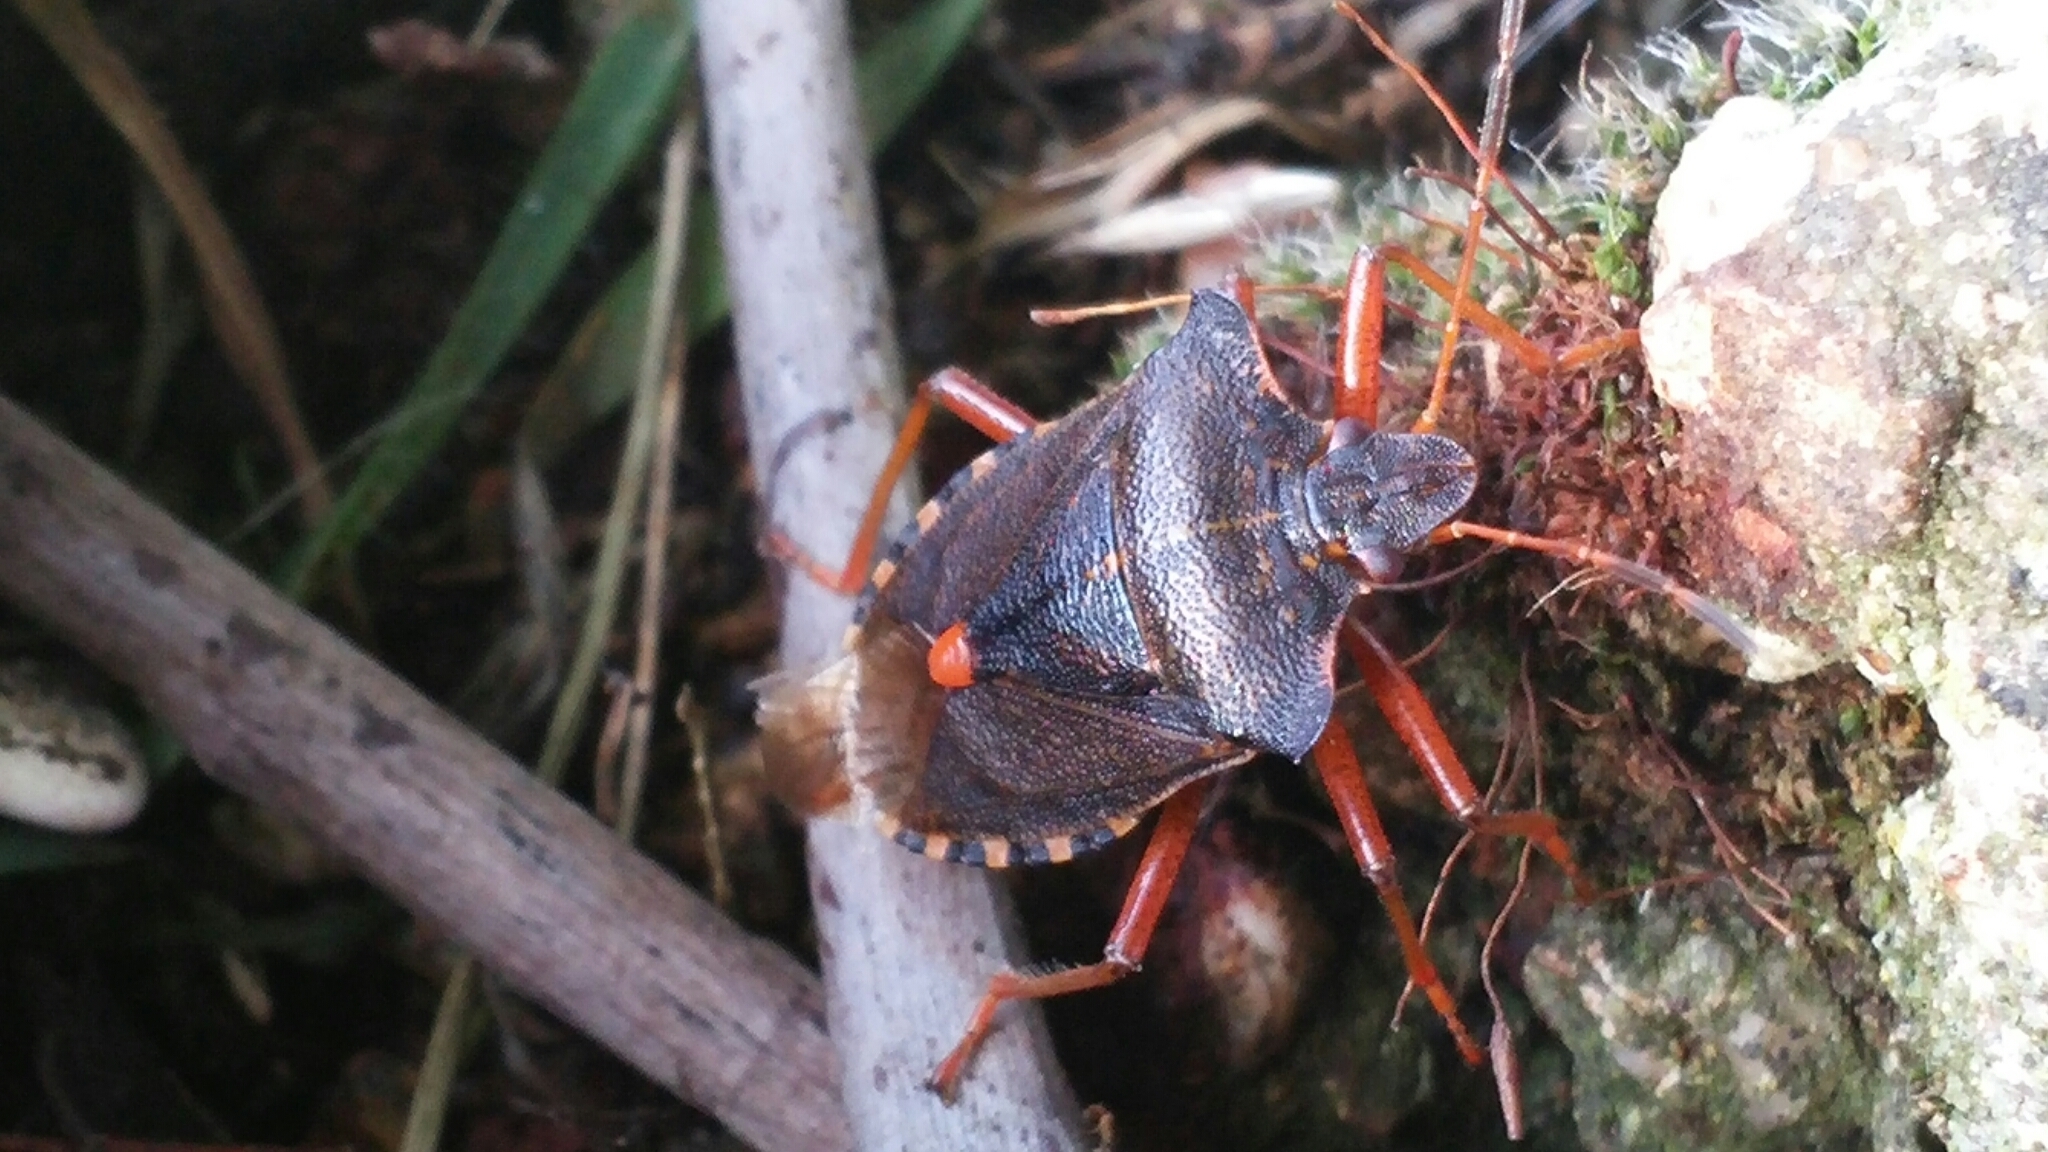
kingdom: Animalia
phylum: Arthropoda
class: Insecta
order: Hemiptera
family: Pentatomidae
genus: Pentatoma
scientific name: Pentatoma rufipes
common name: Forest bug
